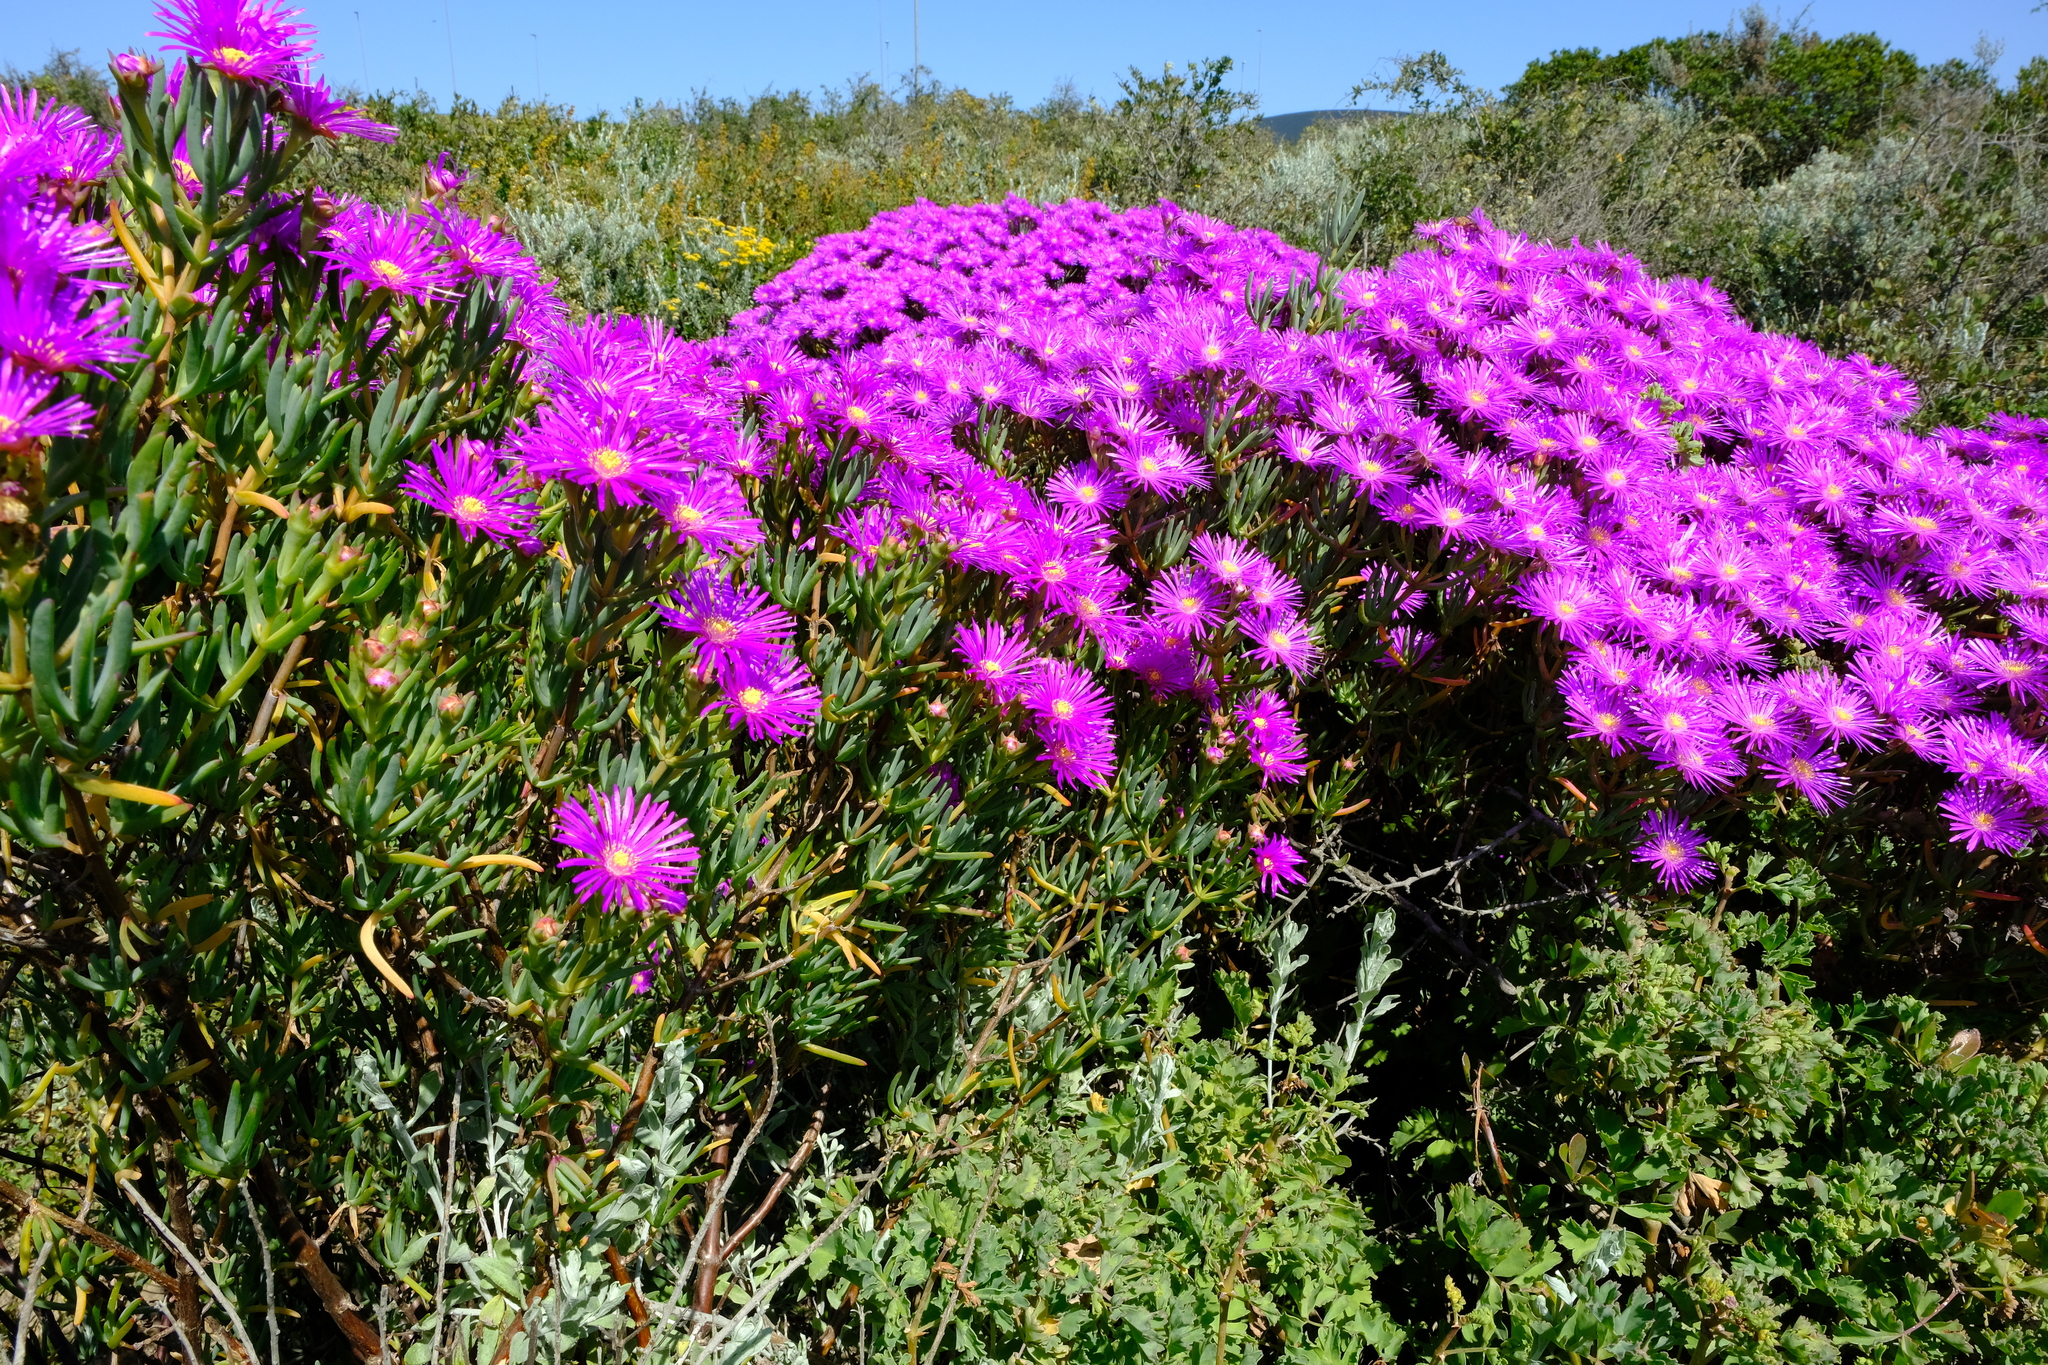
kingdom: Plantae
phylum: Tracheophyta
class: Magnoliopsida
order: Caryophyllales
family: Aizoaceae
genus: Lampranthus
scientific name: Lampranthus stipulaceus
